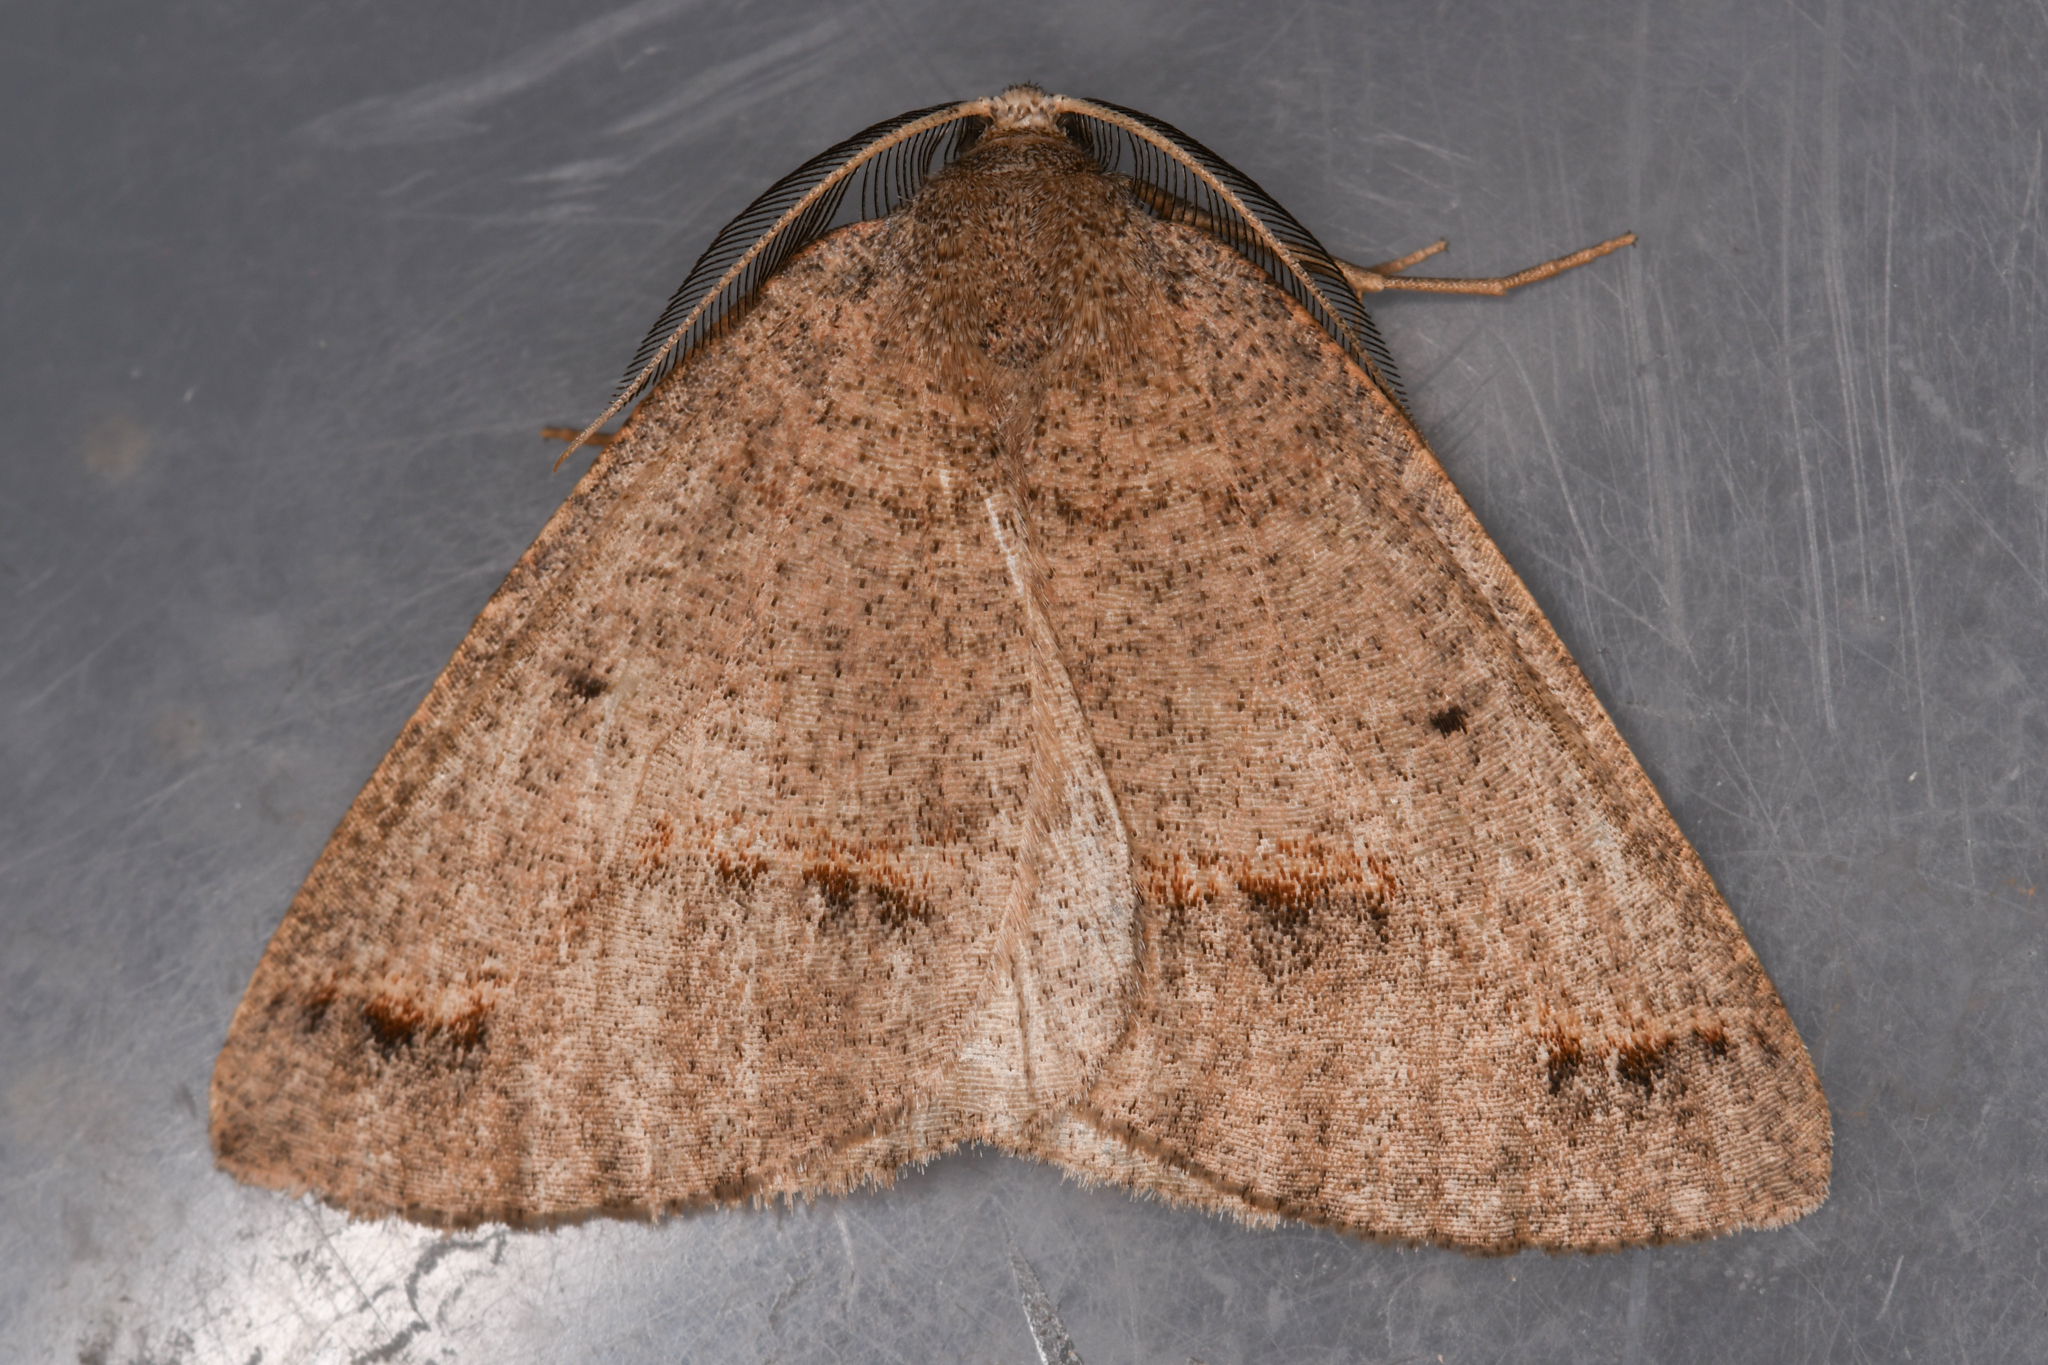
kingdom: Animalia
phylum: Arthropoda
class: Insecta
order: Lepidoptera
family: Geometridae
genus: Drepanulatrix
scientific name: Drepanulatrix unicalcararia
